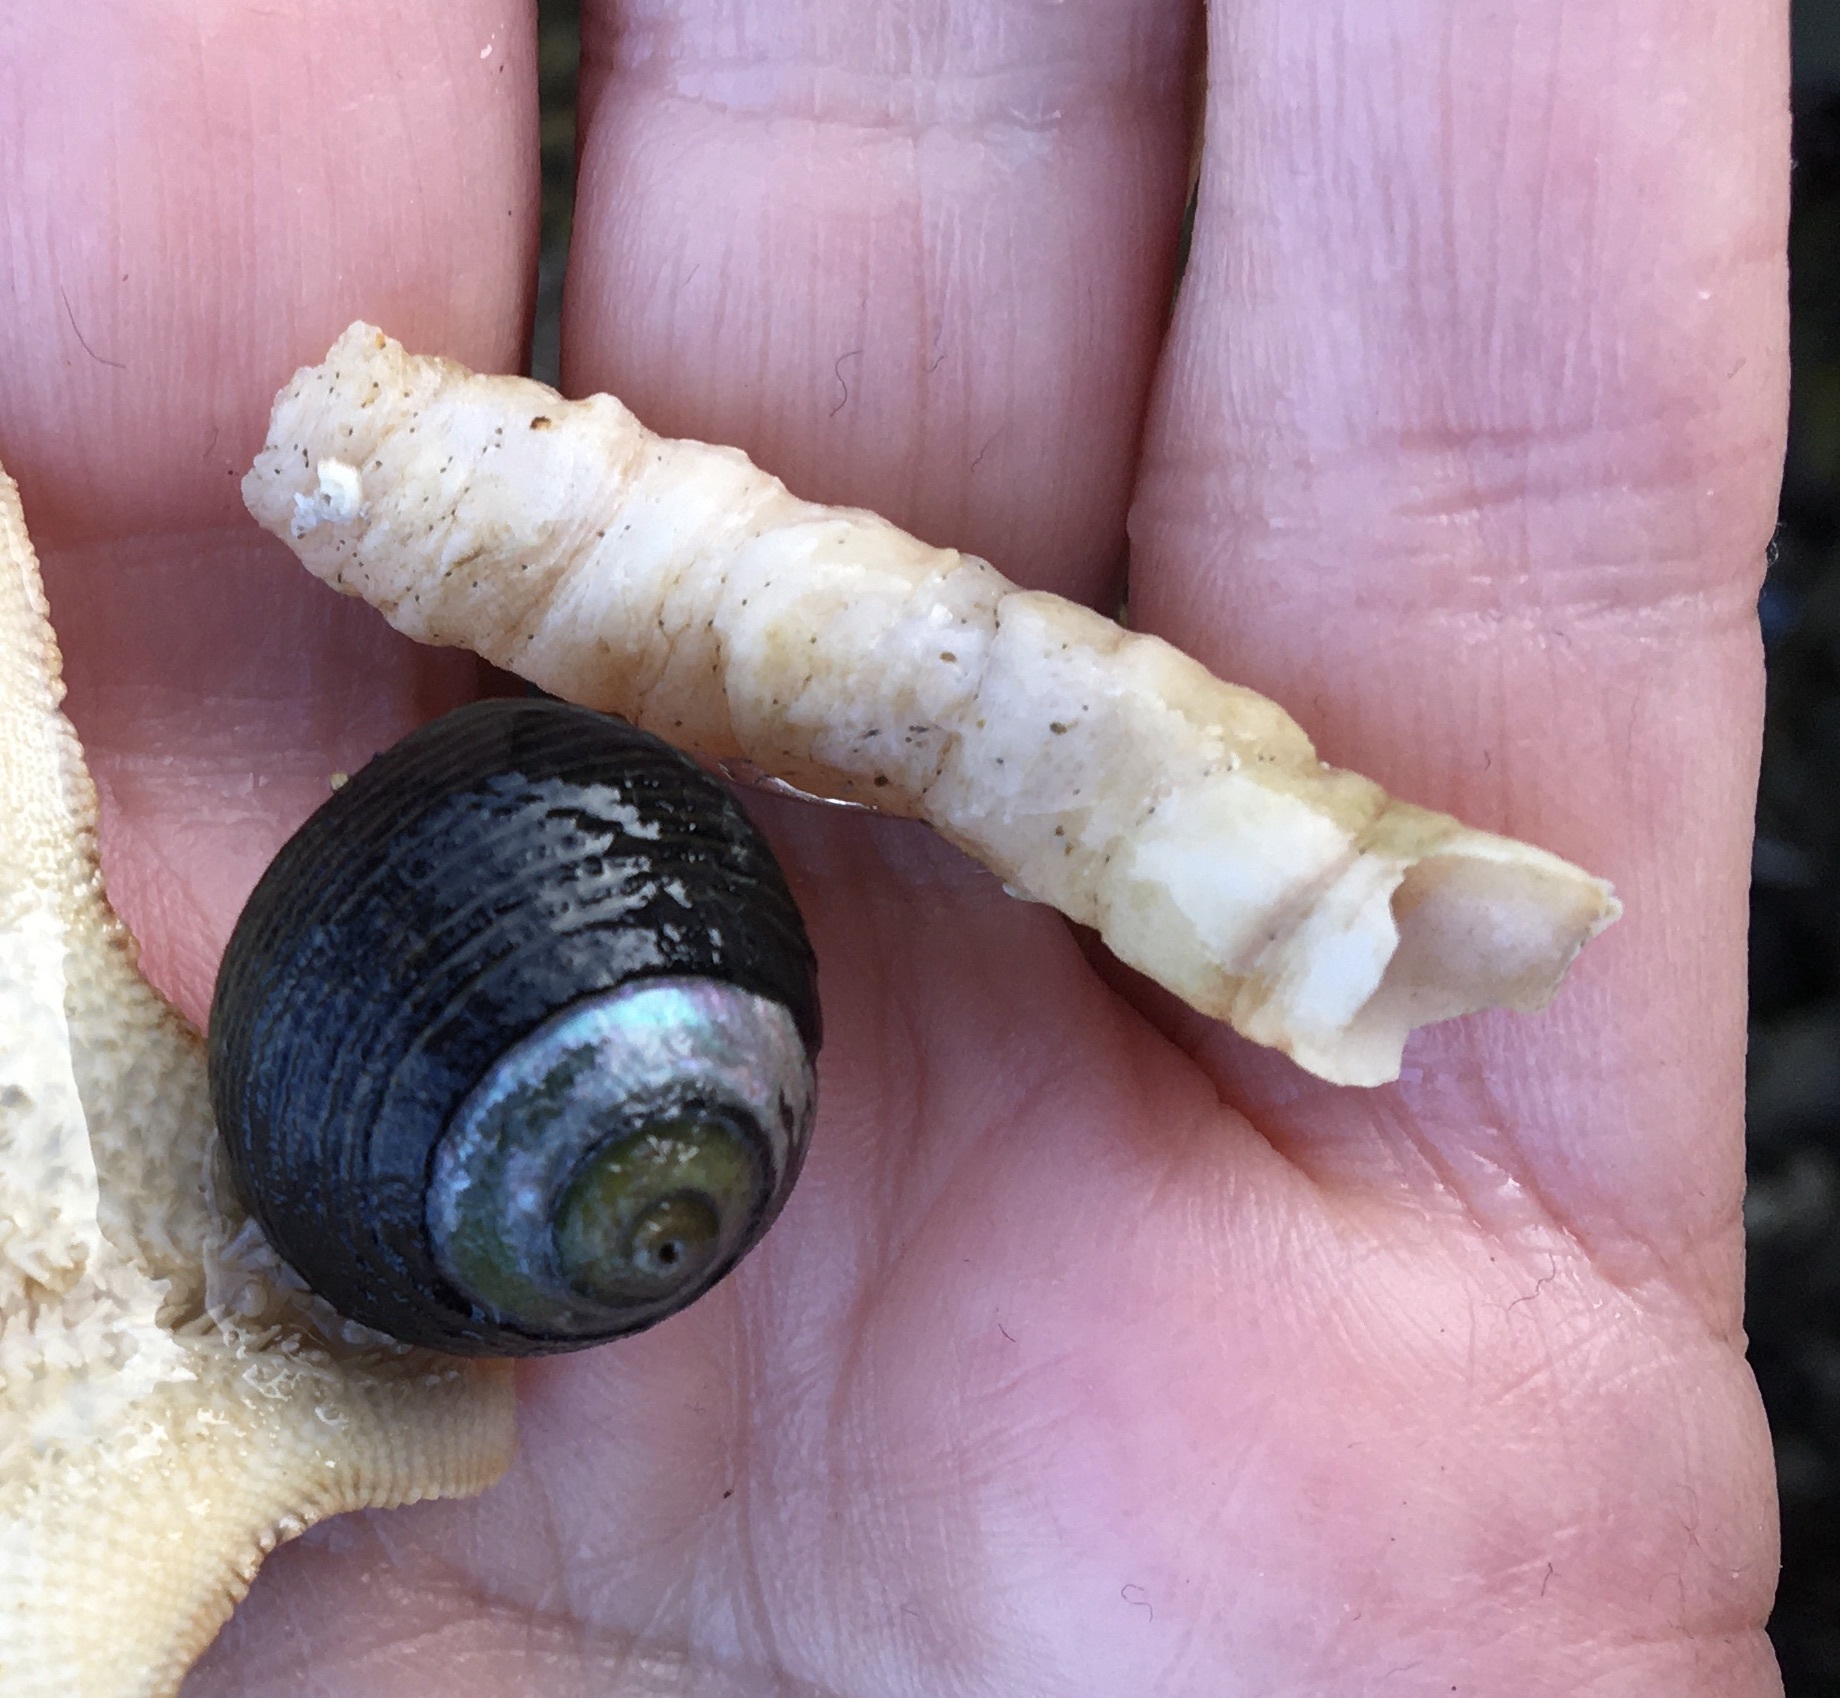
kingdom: Animalia
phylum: Mollusca
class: Gastropoda
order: Trochida
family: Tegulidae
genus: Tegula
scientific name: Tegula funebralis
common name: Black tegula
